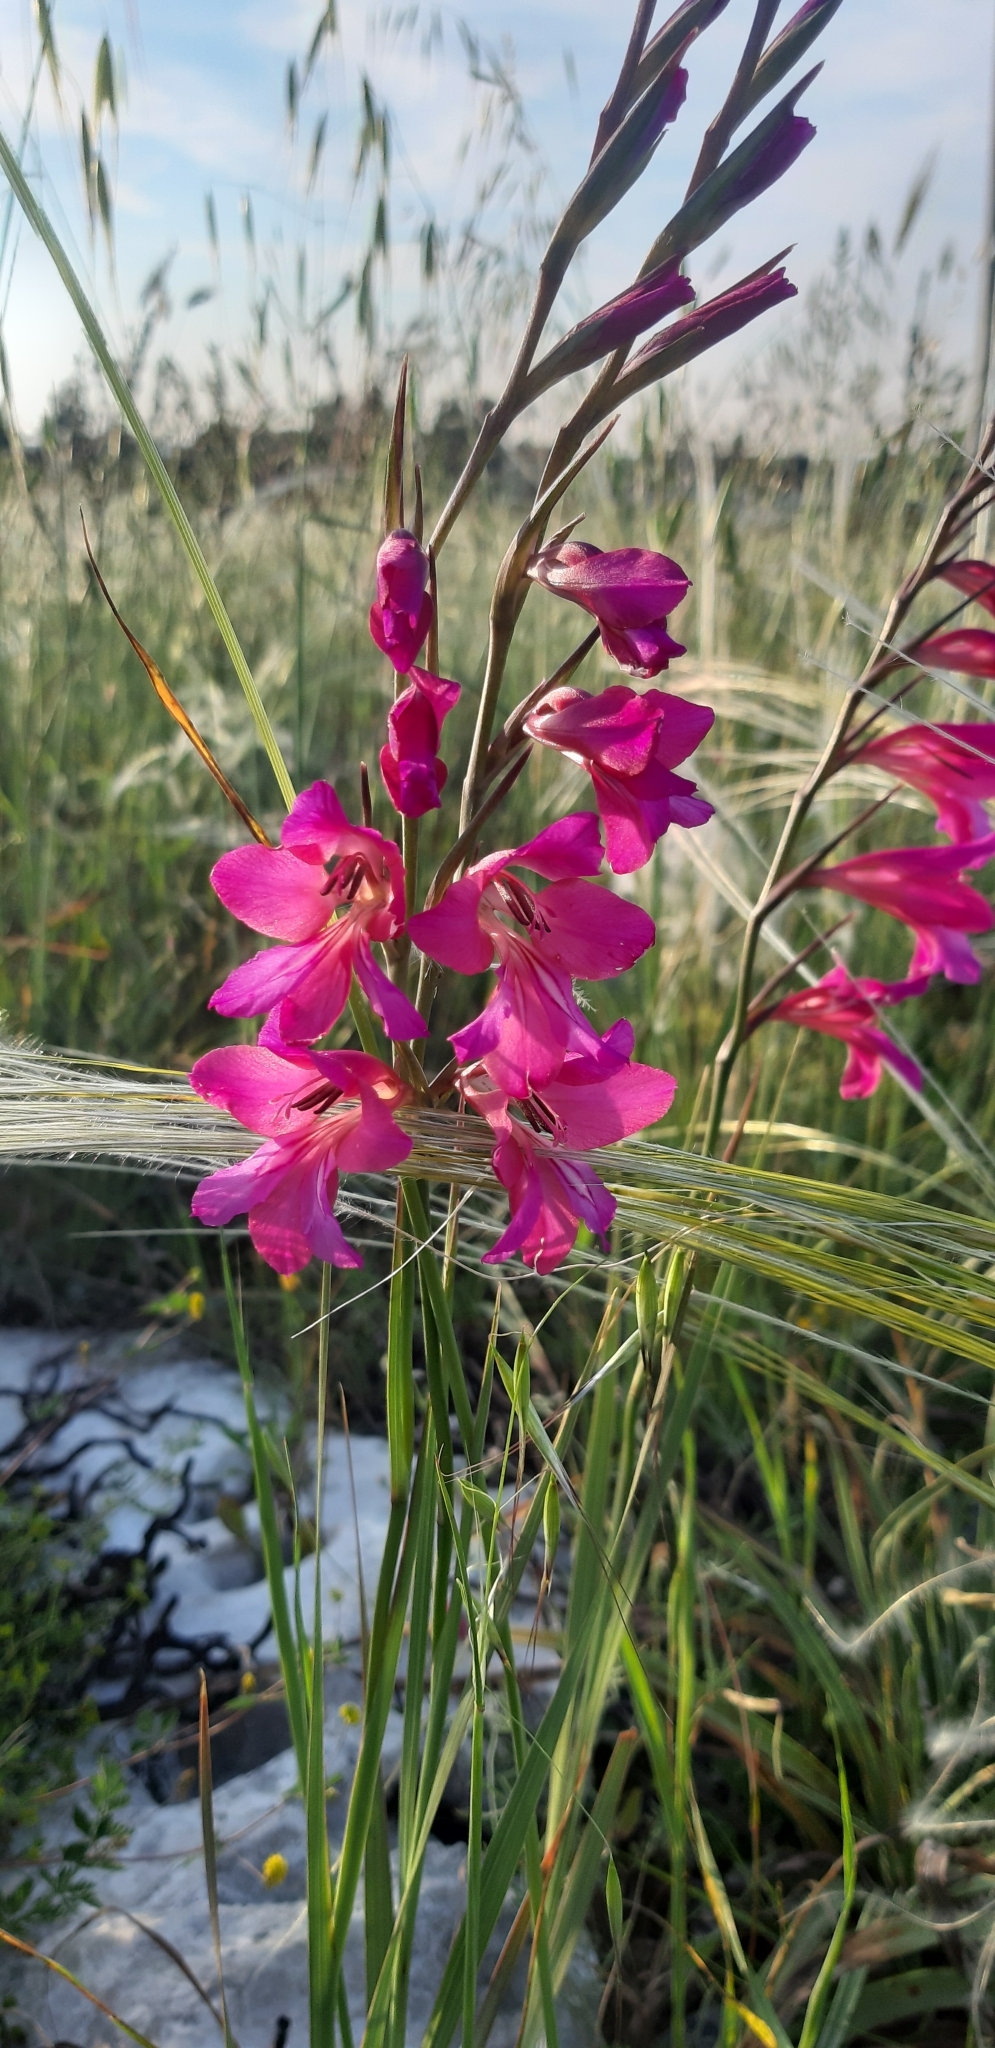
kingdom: Plantae
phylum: Tracheophyta
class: Liliopsida
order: Asparagales
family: Iridaceae
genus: Gladiolus
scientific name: Gladiolus byzantinus
